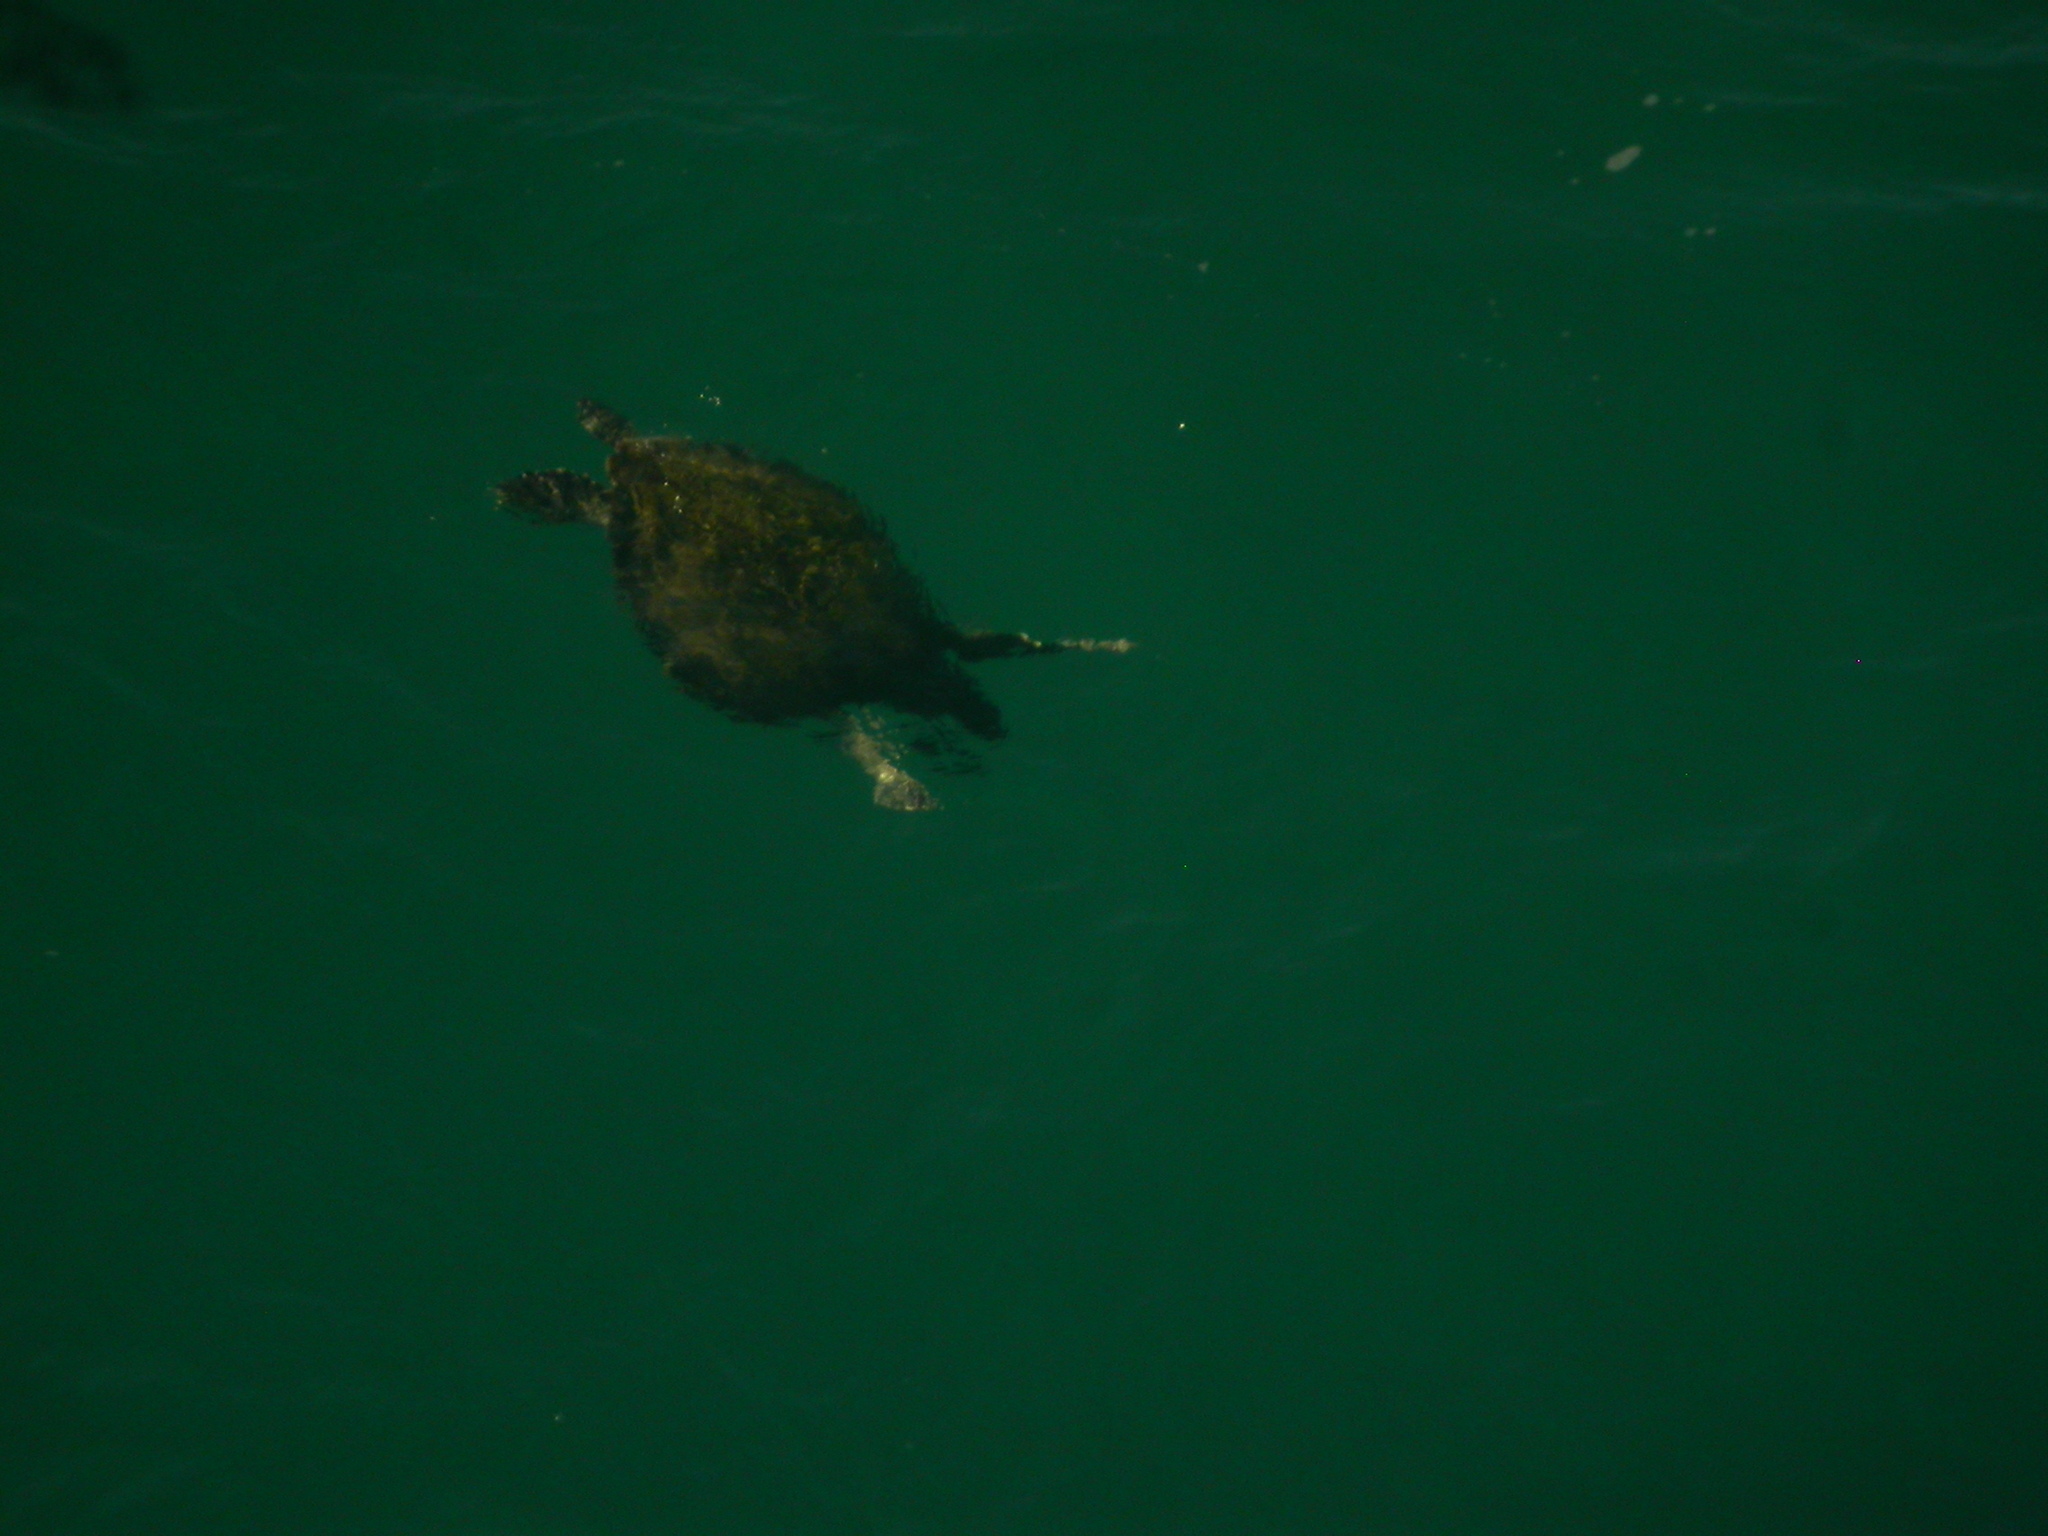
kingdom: Animalia
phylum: Chordata
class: Testudines
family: Cheloniidae
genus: Chelonia
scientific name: Chelonia mydas
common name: Green turtle
